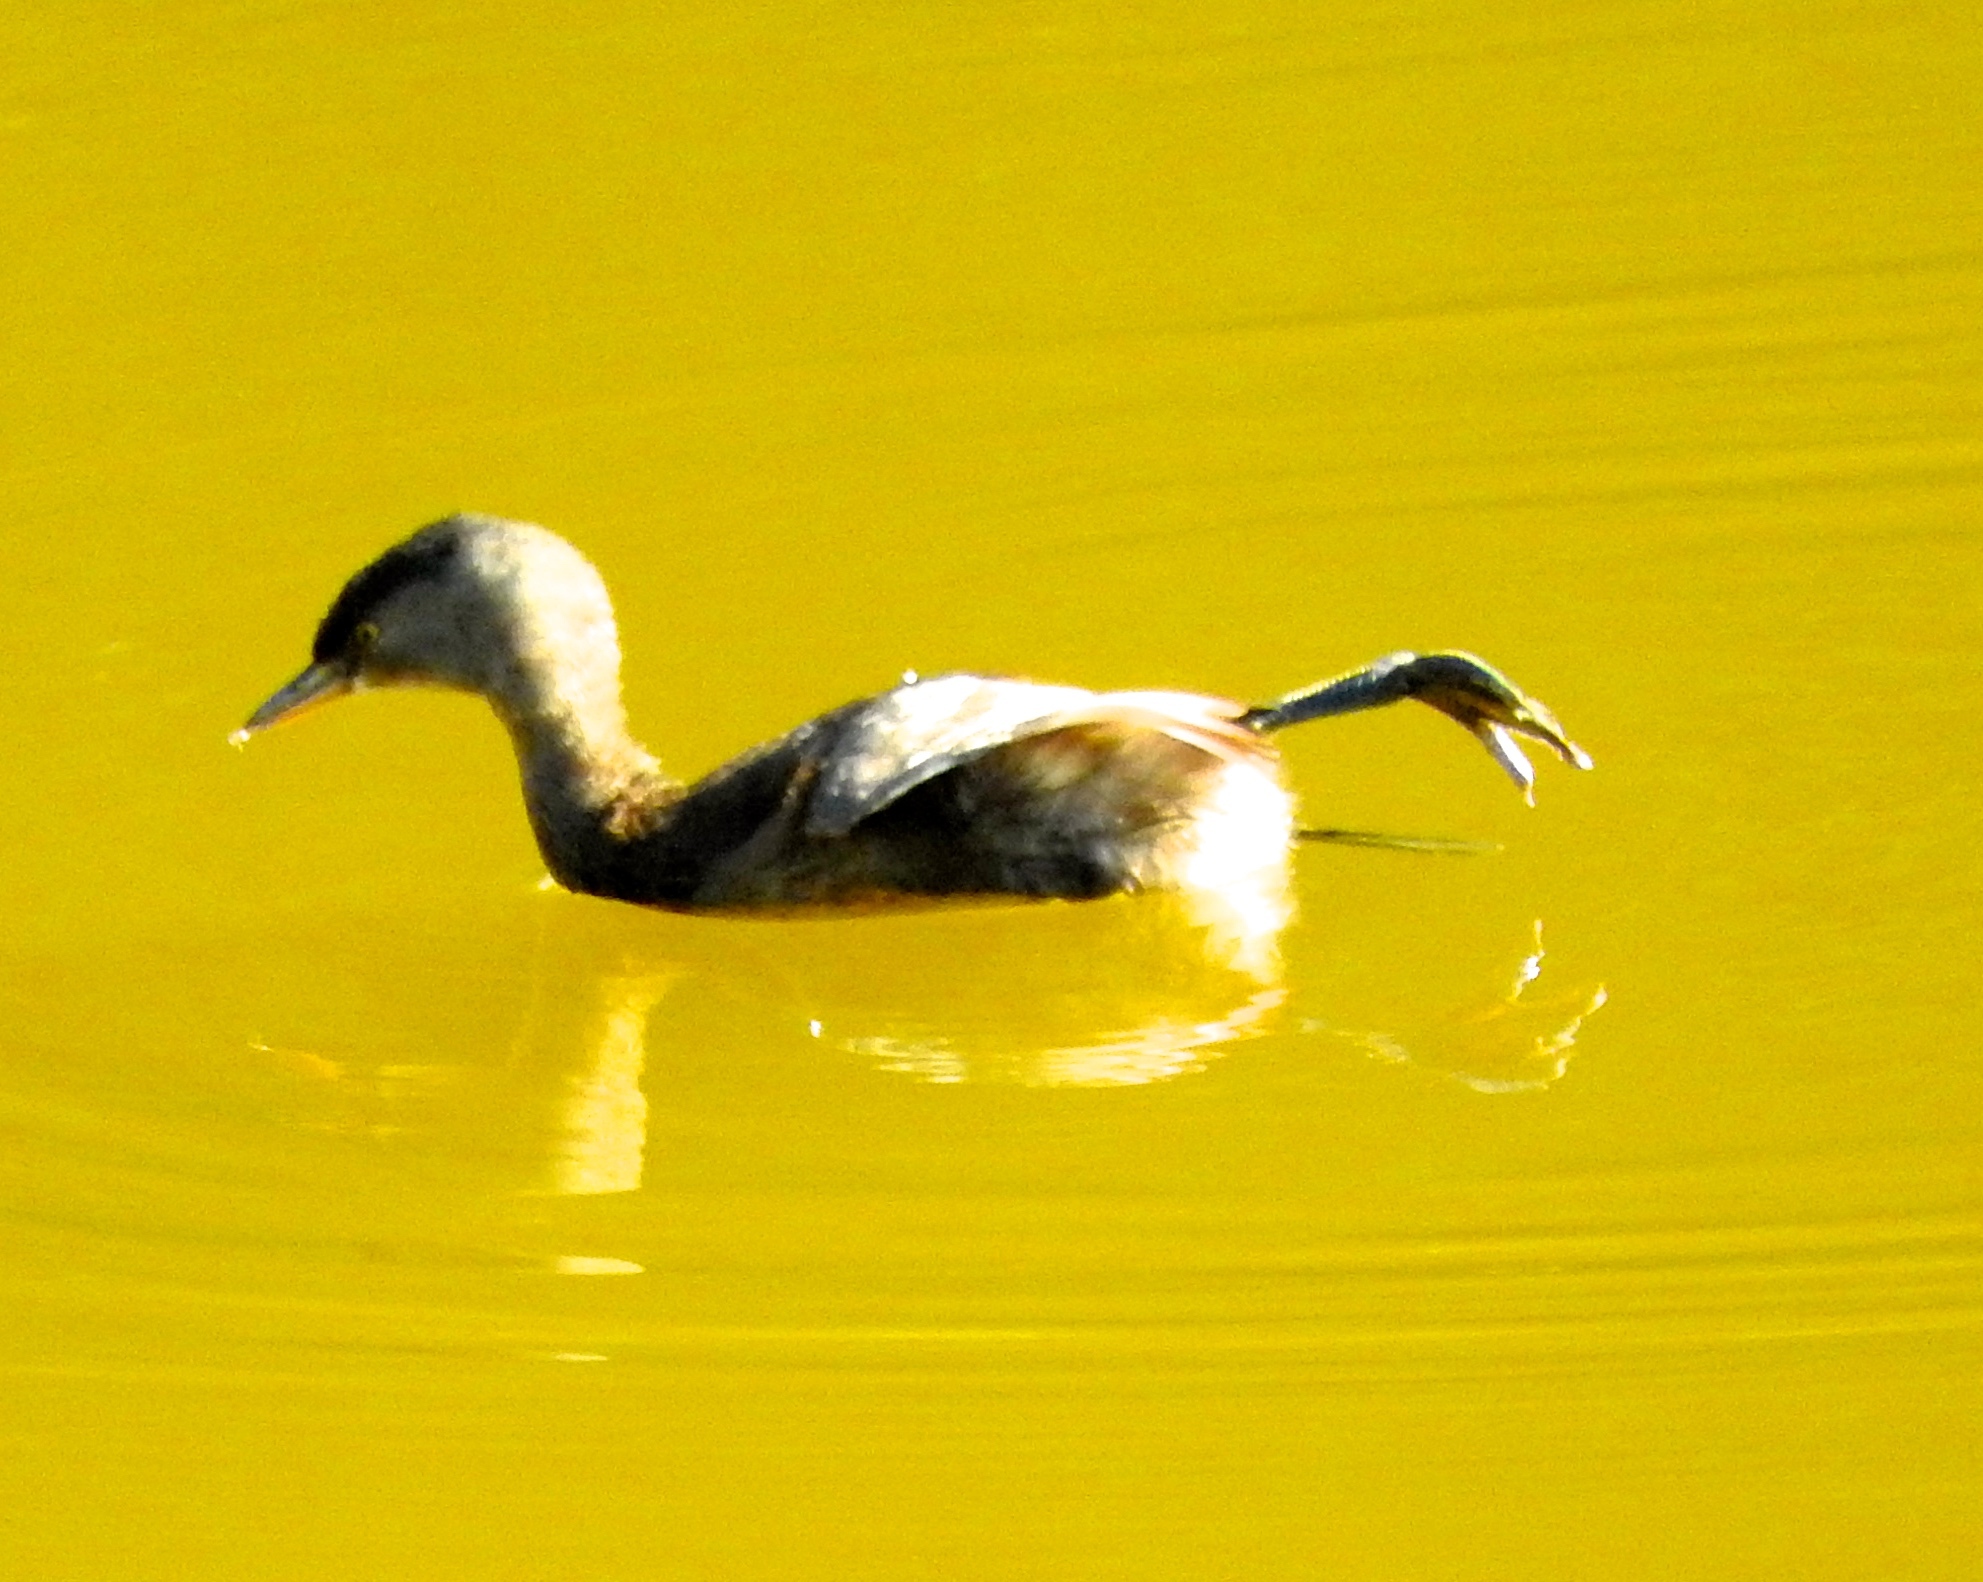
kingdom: Animalia
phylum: Chordata
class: Aves
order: Podicipediformes
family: Podicipedidae
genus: Tachybaptus
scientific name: Tachybaptus dominicus
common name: Least grebe
